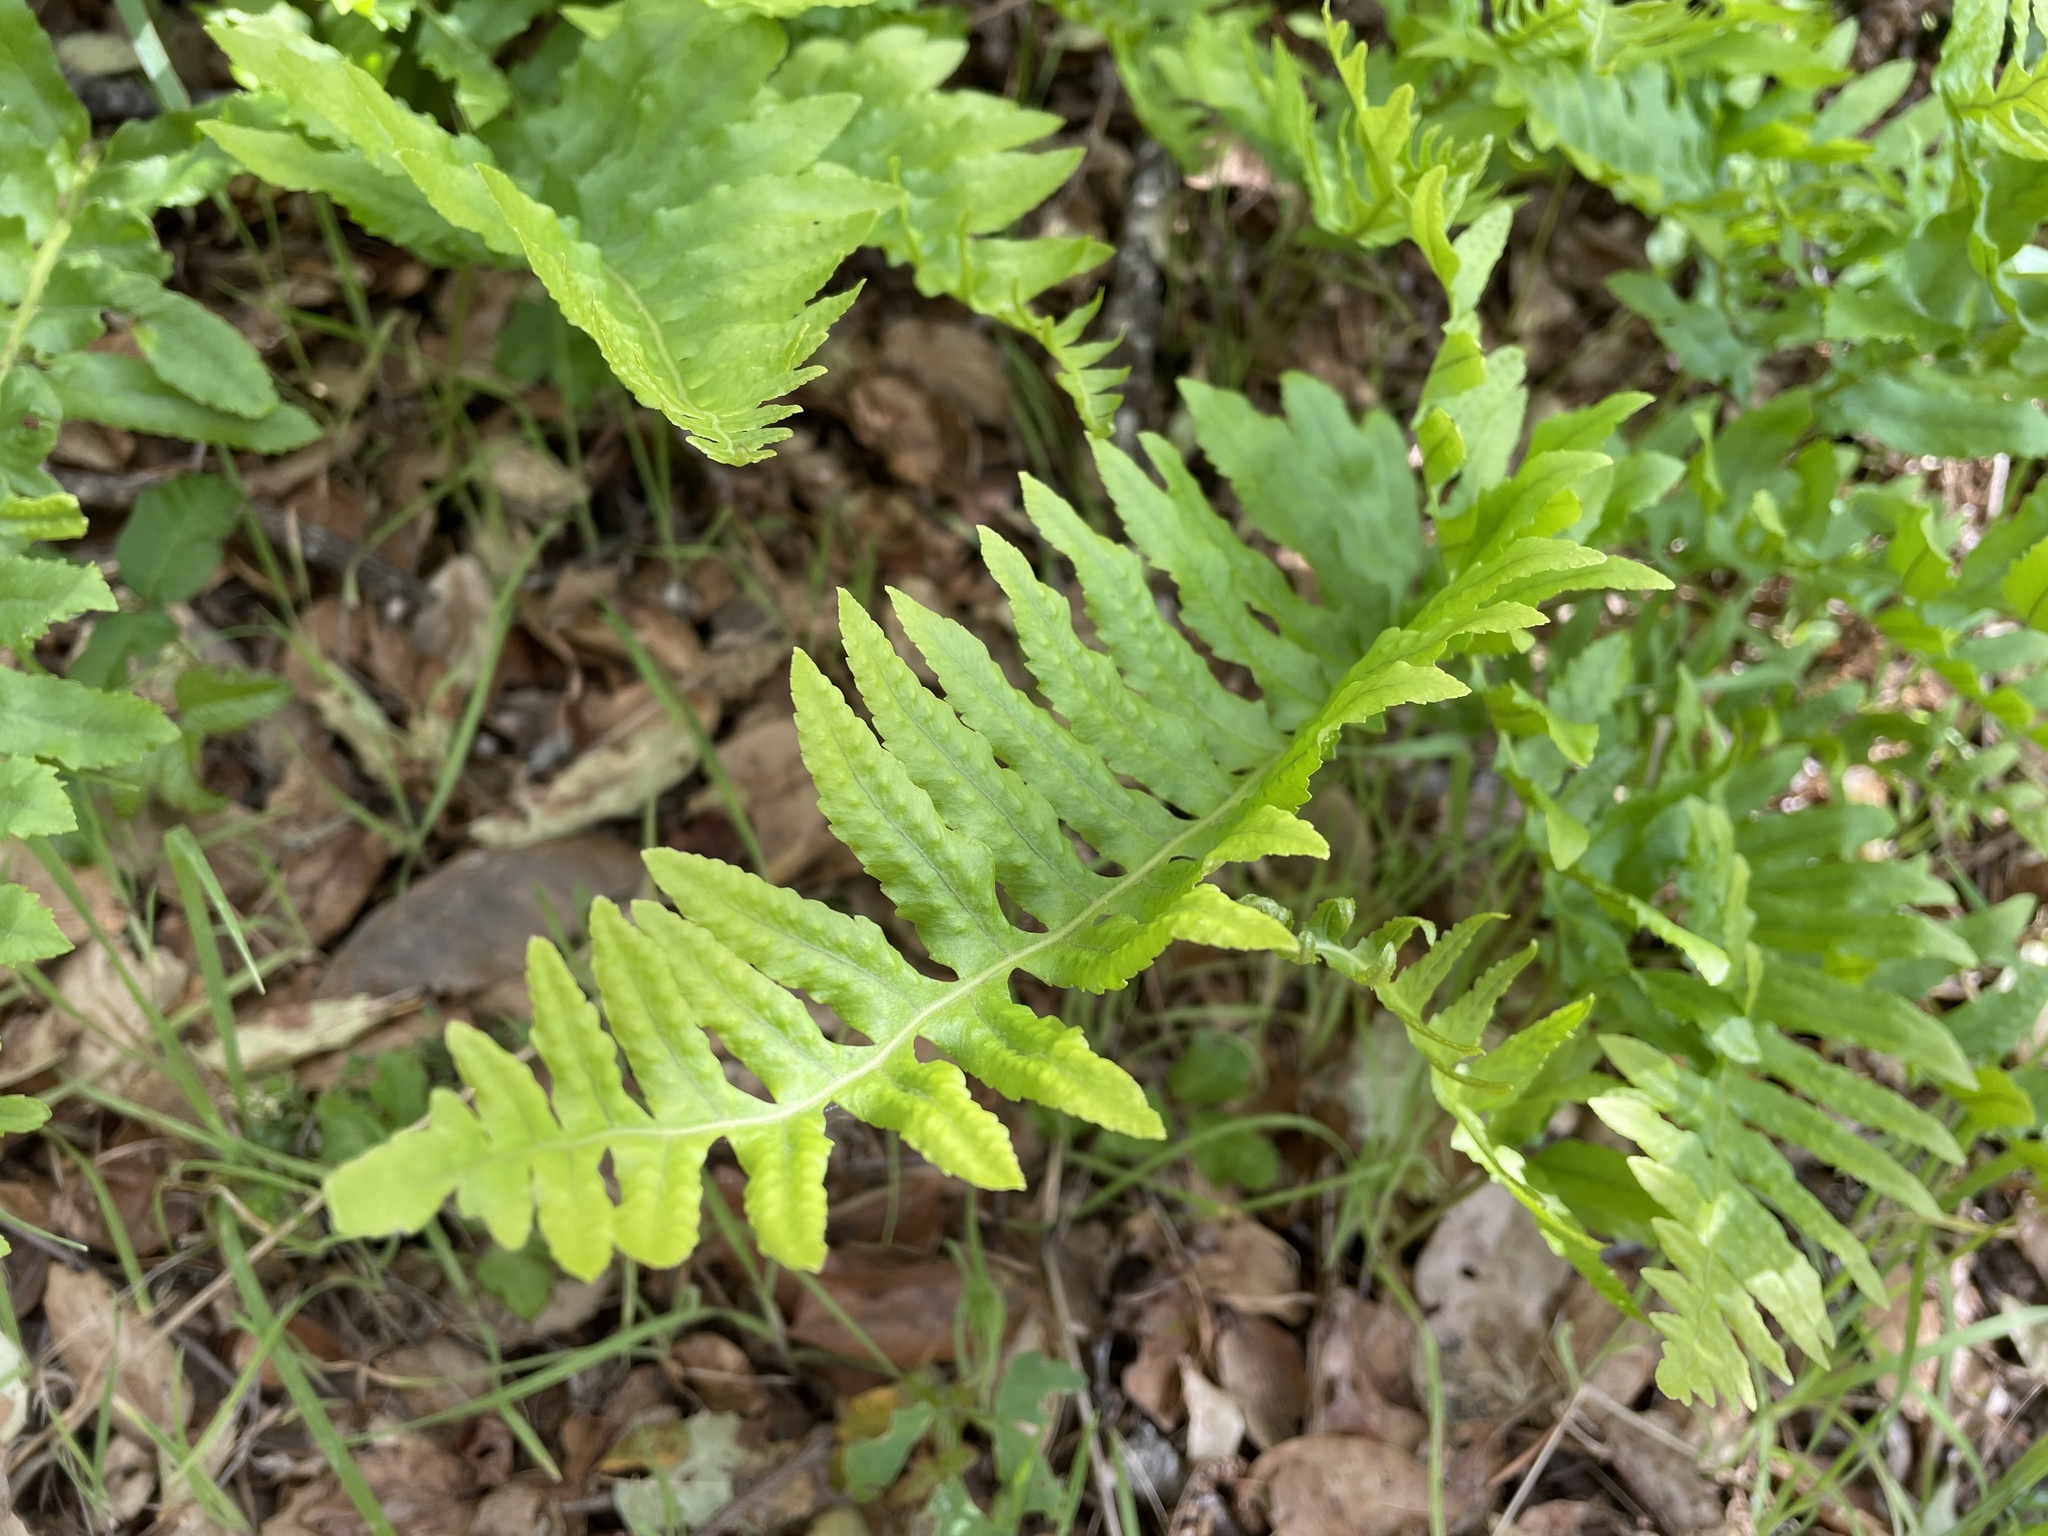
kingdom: Plantae
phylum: Tracheophyta
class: Polypodiopsida
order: Polypodiales
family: Polypodiaceae
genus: Polypodium
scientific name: Polypodium californicum
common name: California polypody
